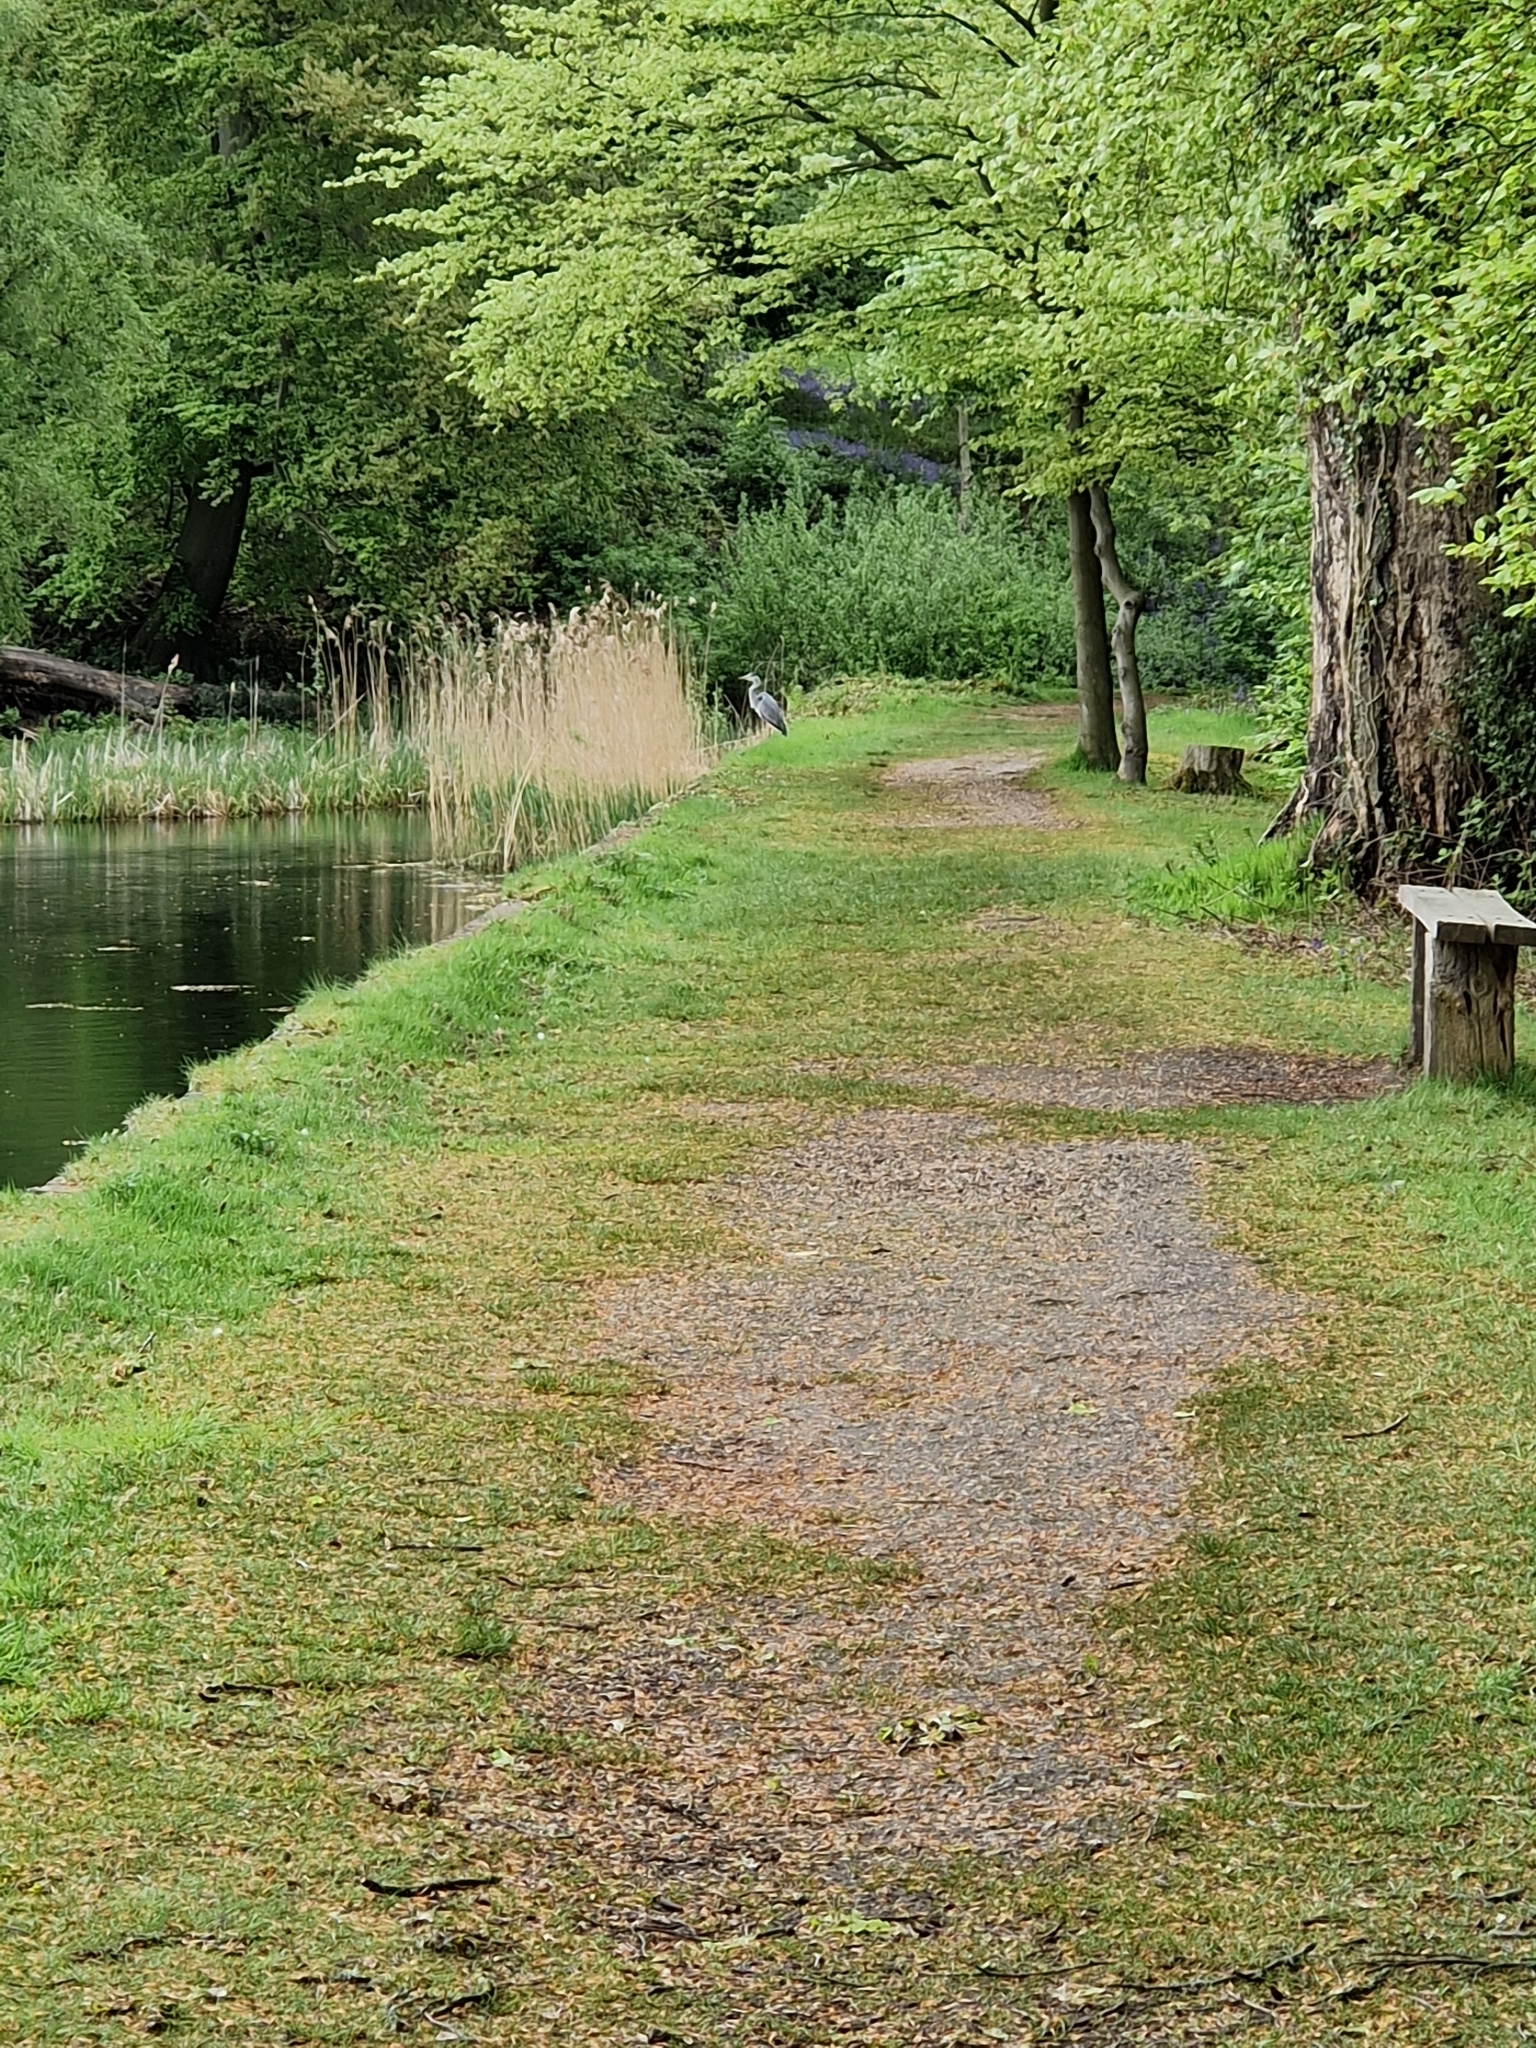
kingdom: Animalia
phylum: Chordata
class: Aves
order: Pelecaniformes
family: Ardeidae
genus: Ardea
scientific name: Ardea cinerea
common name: Grey heron
